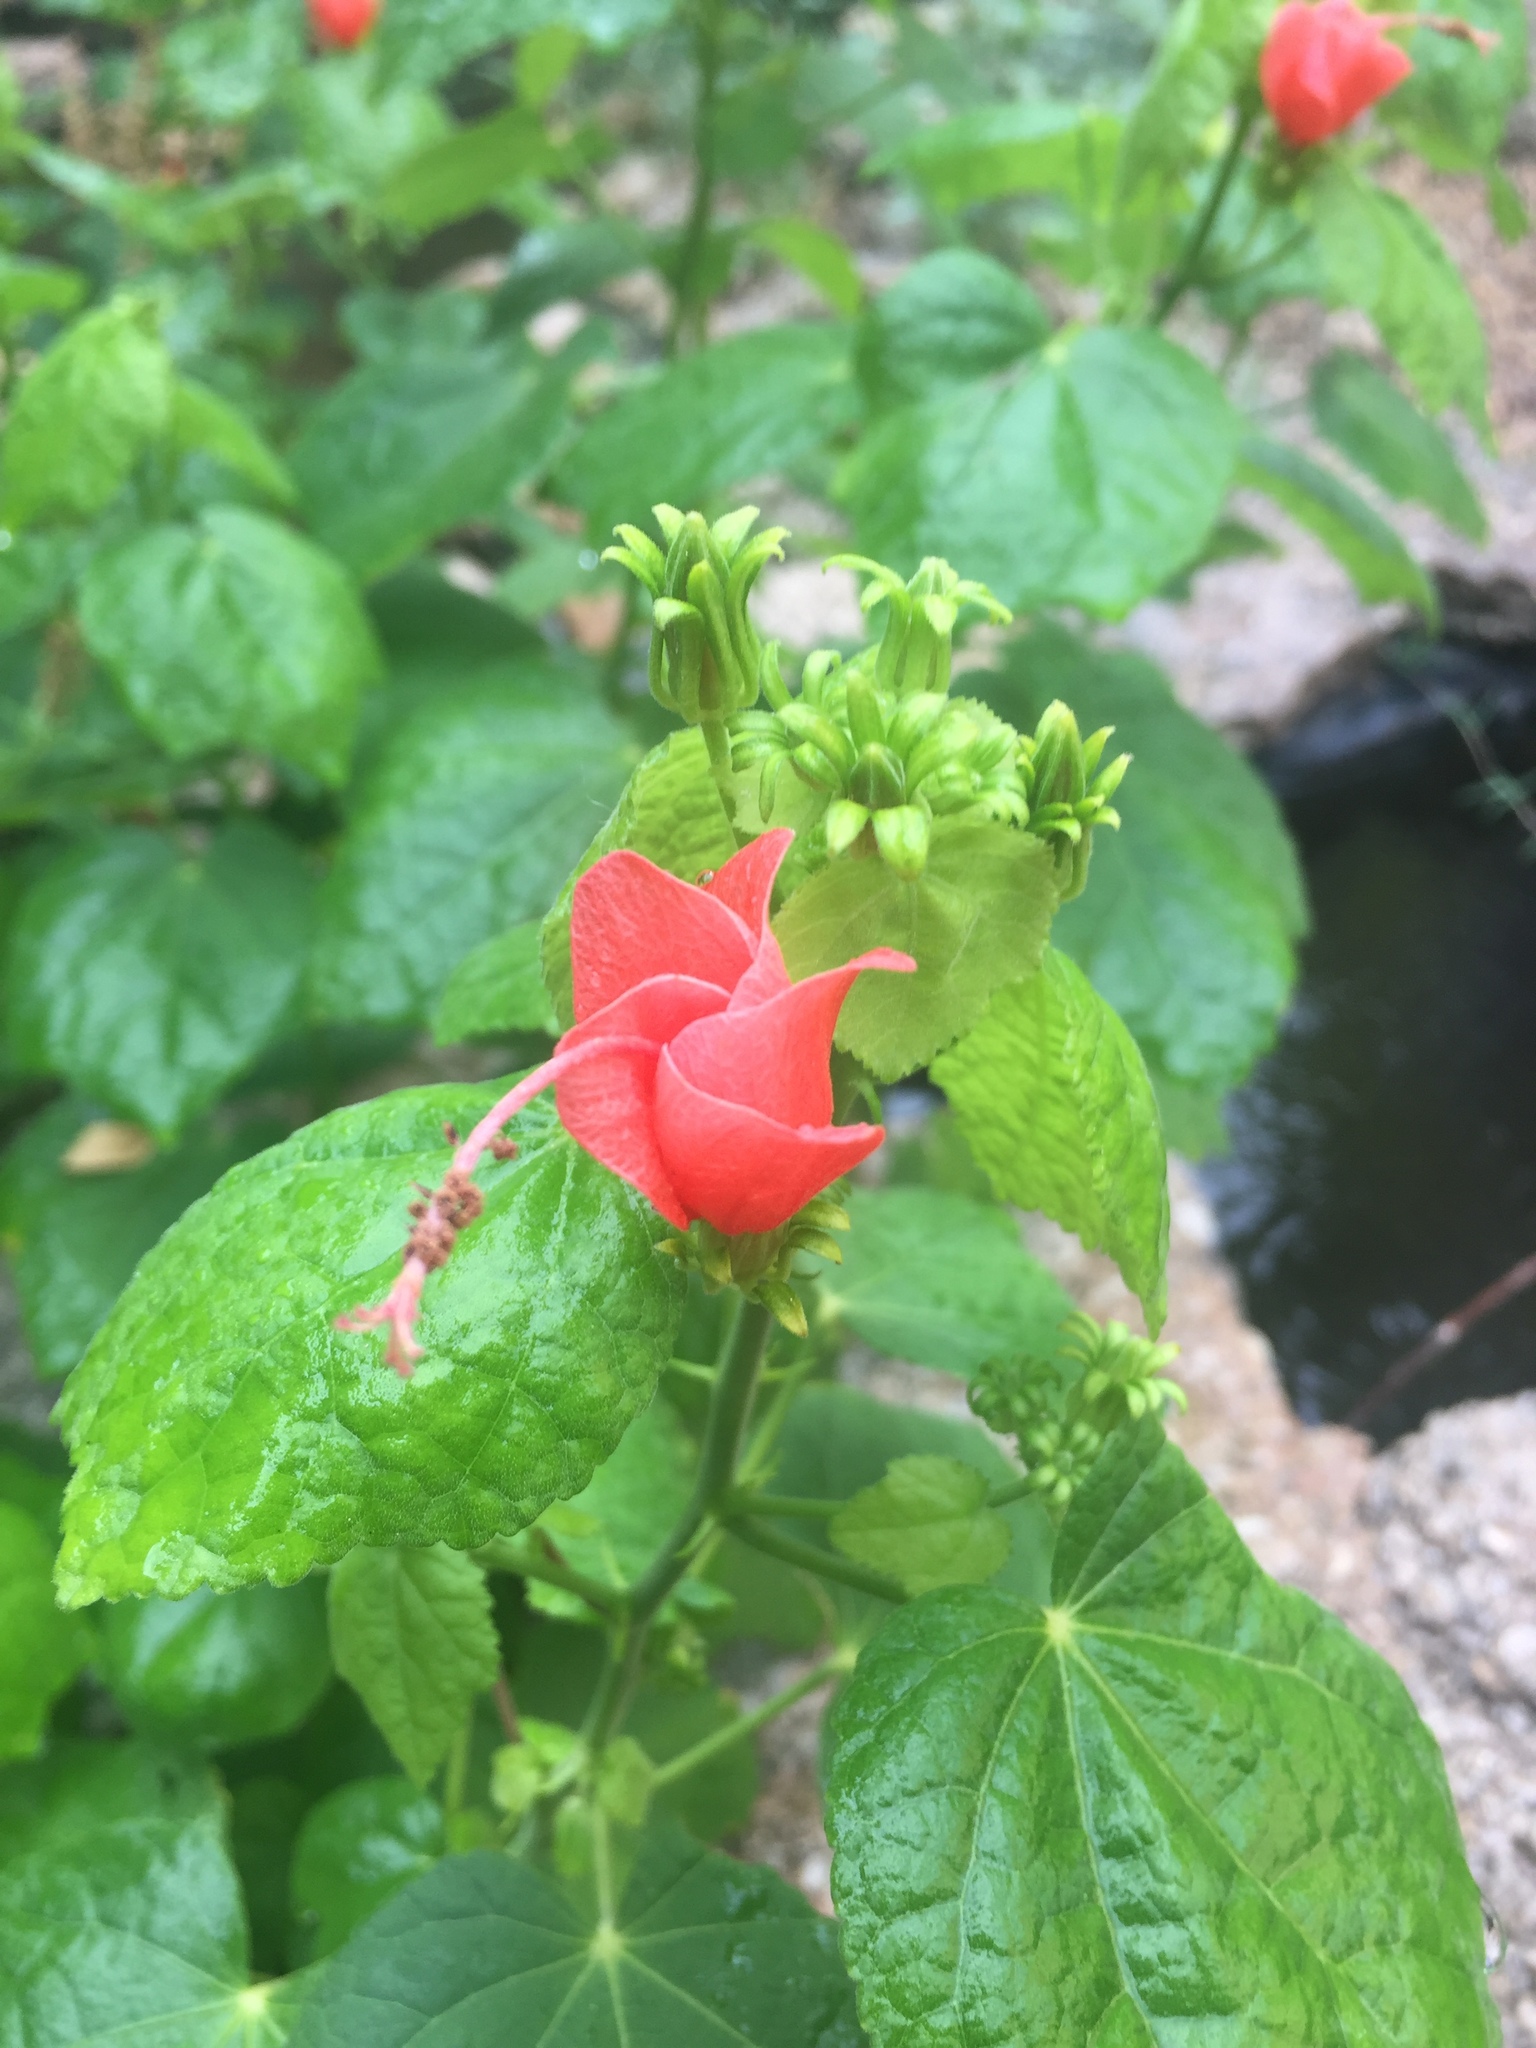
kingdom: Plantae
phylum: Tracheophyta
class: Magnoliopsida
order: Malvales
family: Malvaceae
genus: Malvaviscus
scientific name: Malvaviscus arboreus
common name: Wax mallow
